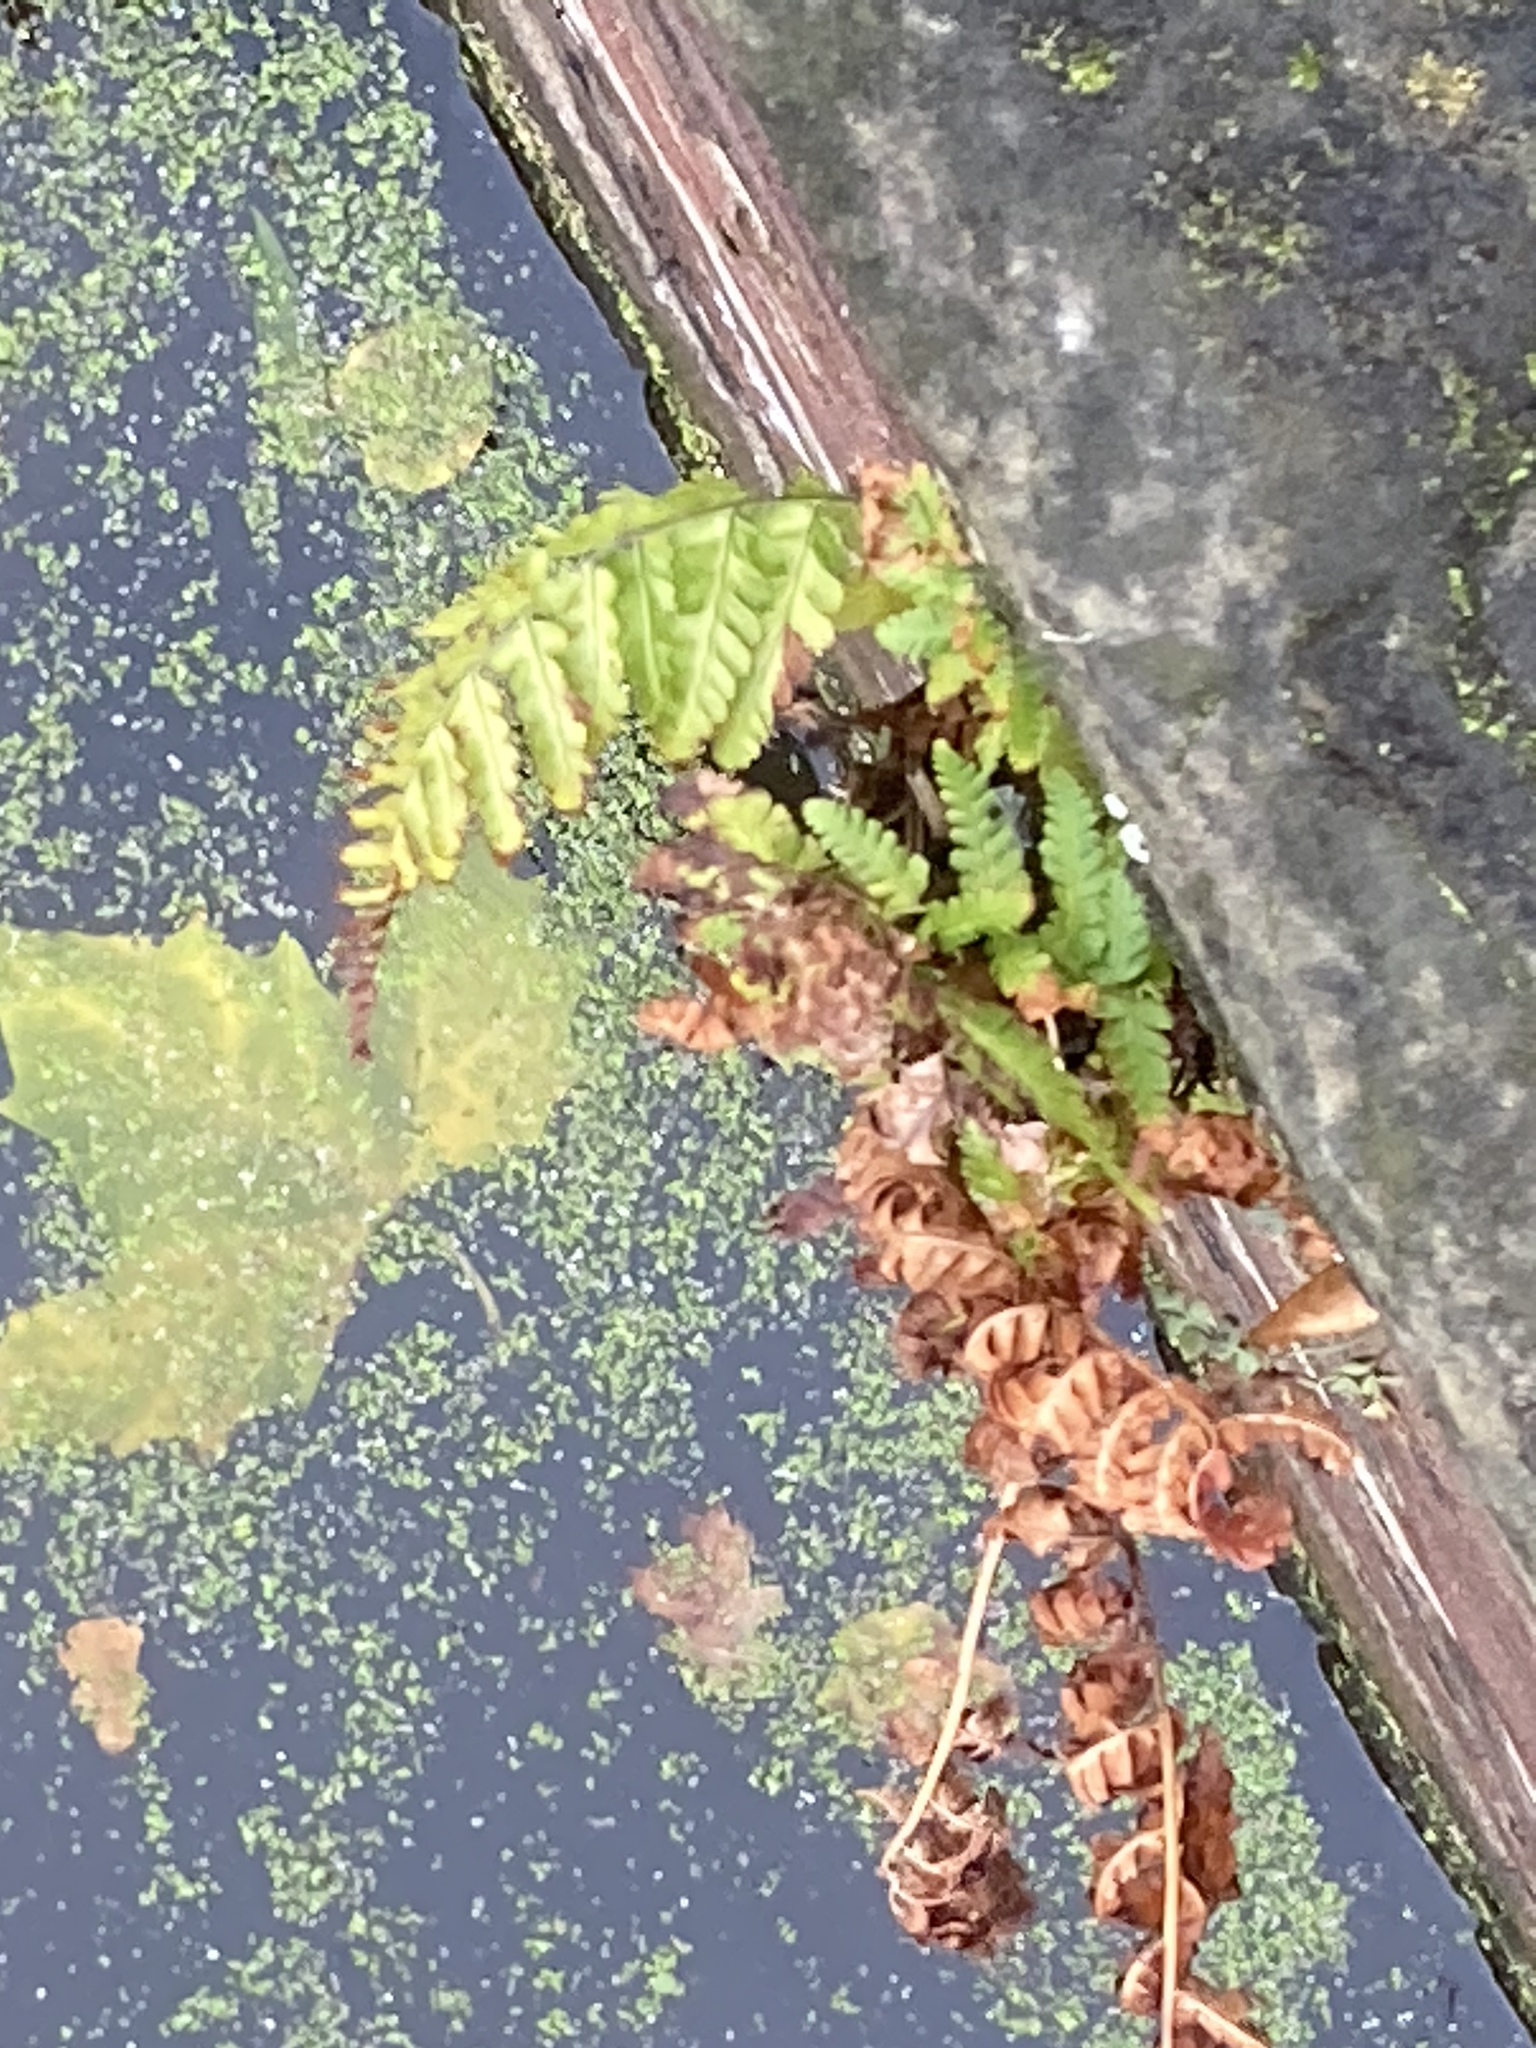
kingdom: Plantae
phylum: Tracheophyta
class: Polypodiopsida
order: Polypodiales
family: Dryopteridaceae
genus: Dryopteris
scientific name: Dryopteris filix-mas
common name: Male fern
